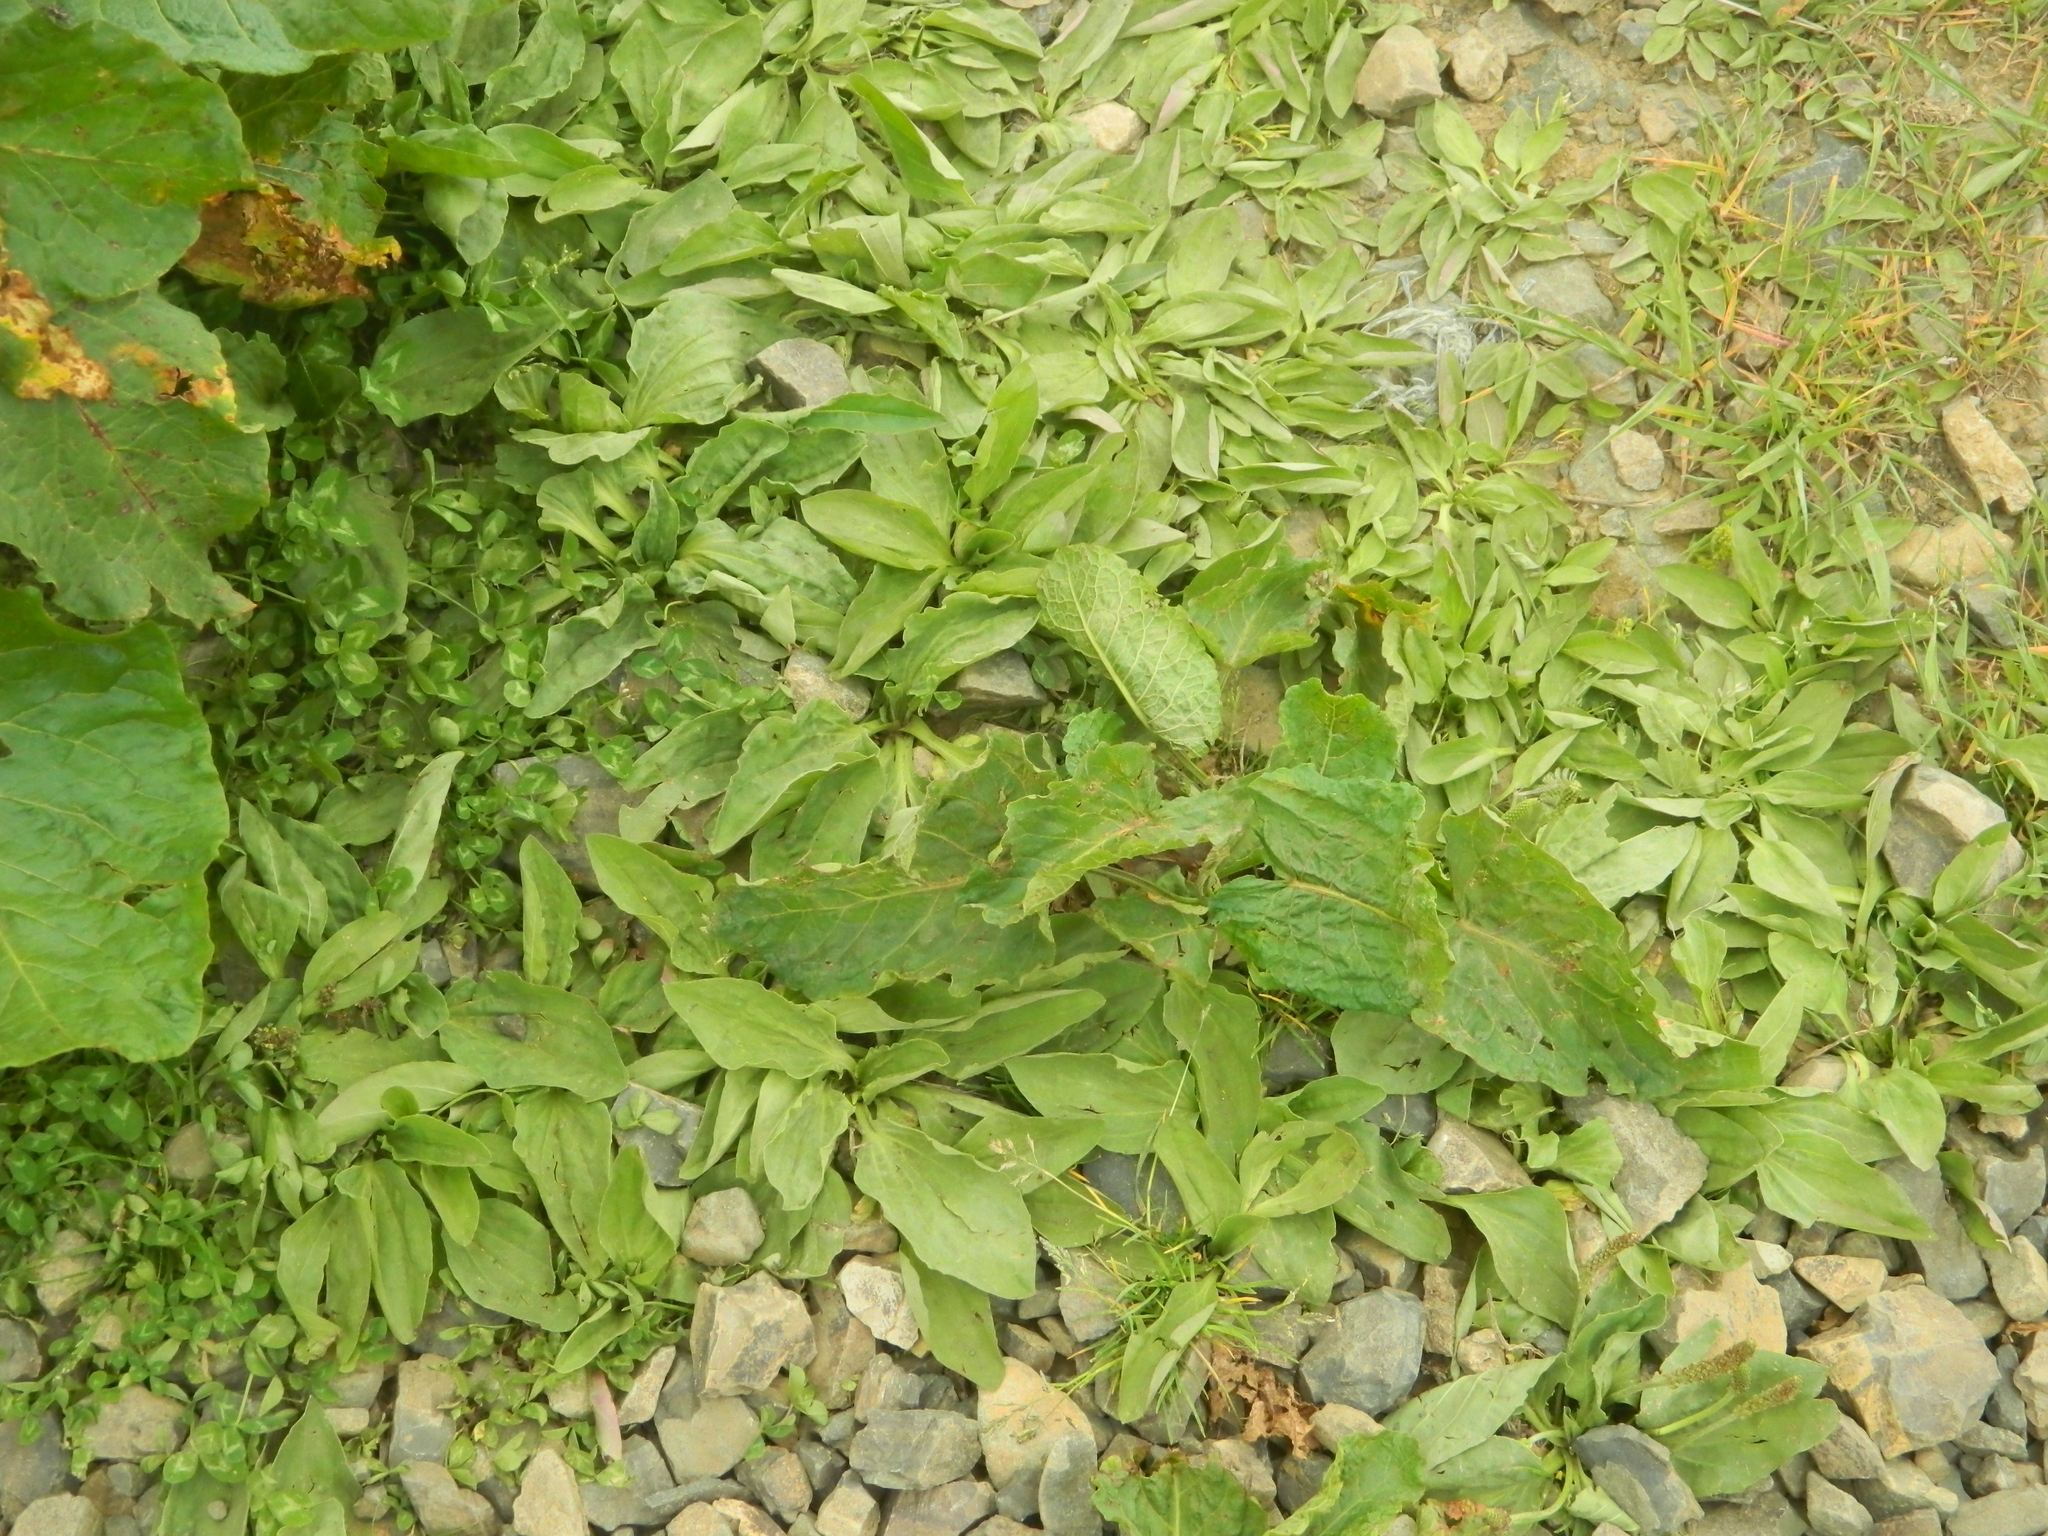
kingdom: Plantae
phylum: Tracheophyta
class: Magnoliopsida
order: Lamiales
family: Plantaginaceae
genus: Plantago
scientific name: Plantago major
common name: Common plantain
